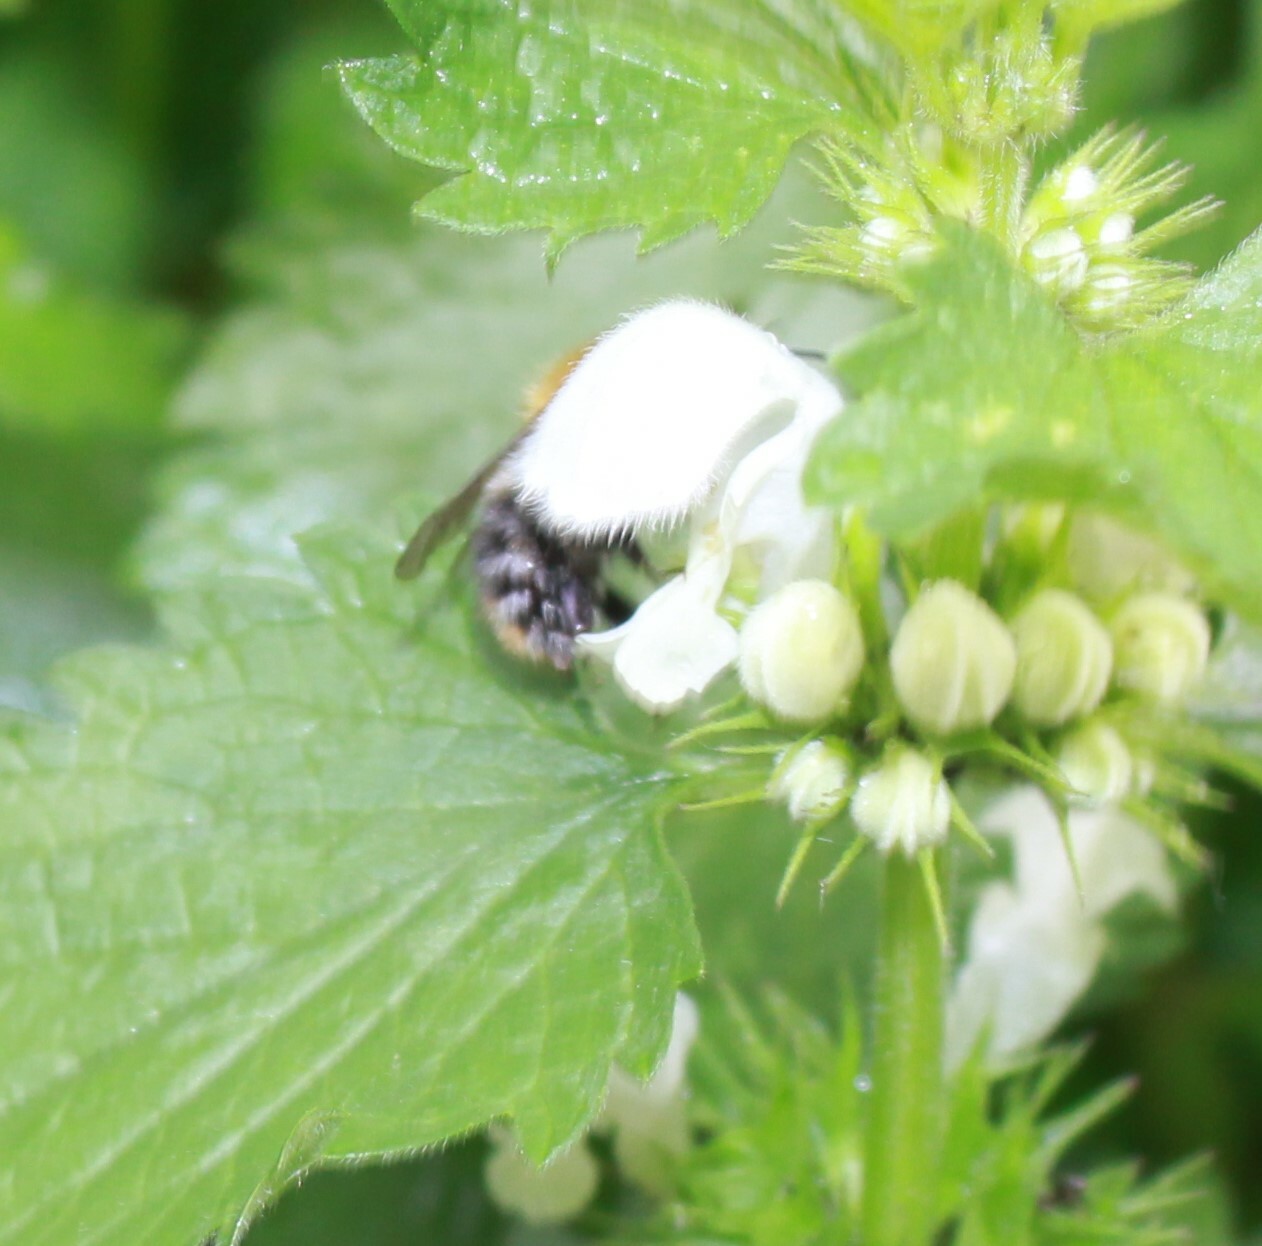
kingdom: Animalia
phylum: Arthropoda
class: Insecta
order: Hymenoptera
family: Apidae
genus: Bombus
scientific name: Bombus pascuorum
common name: Common carder bee
